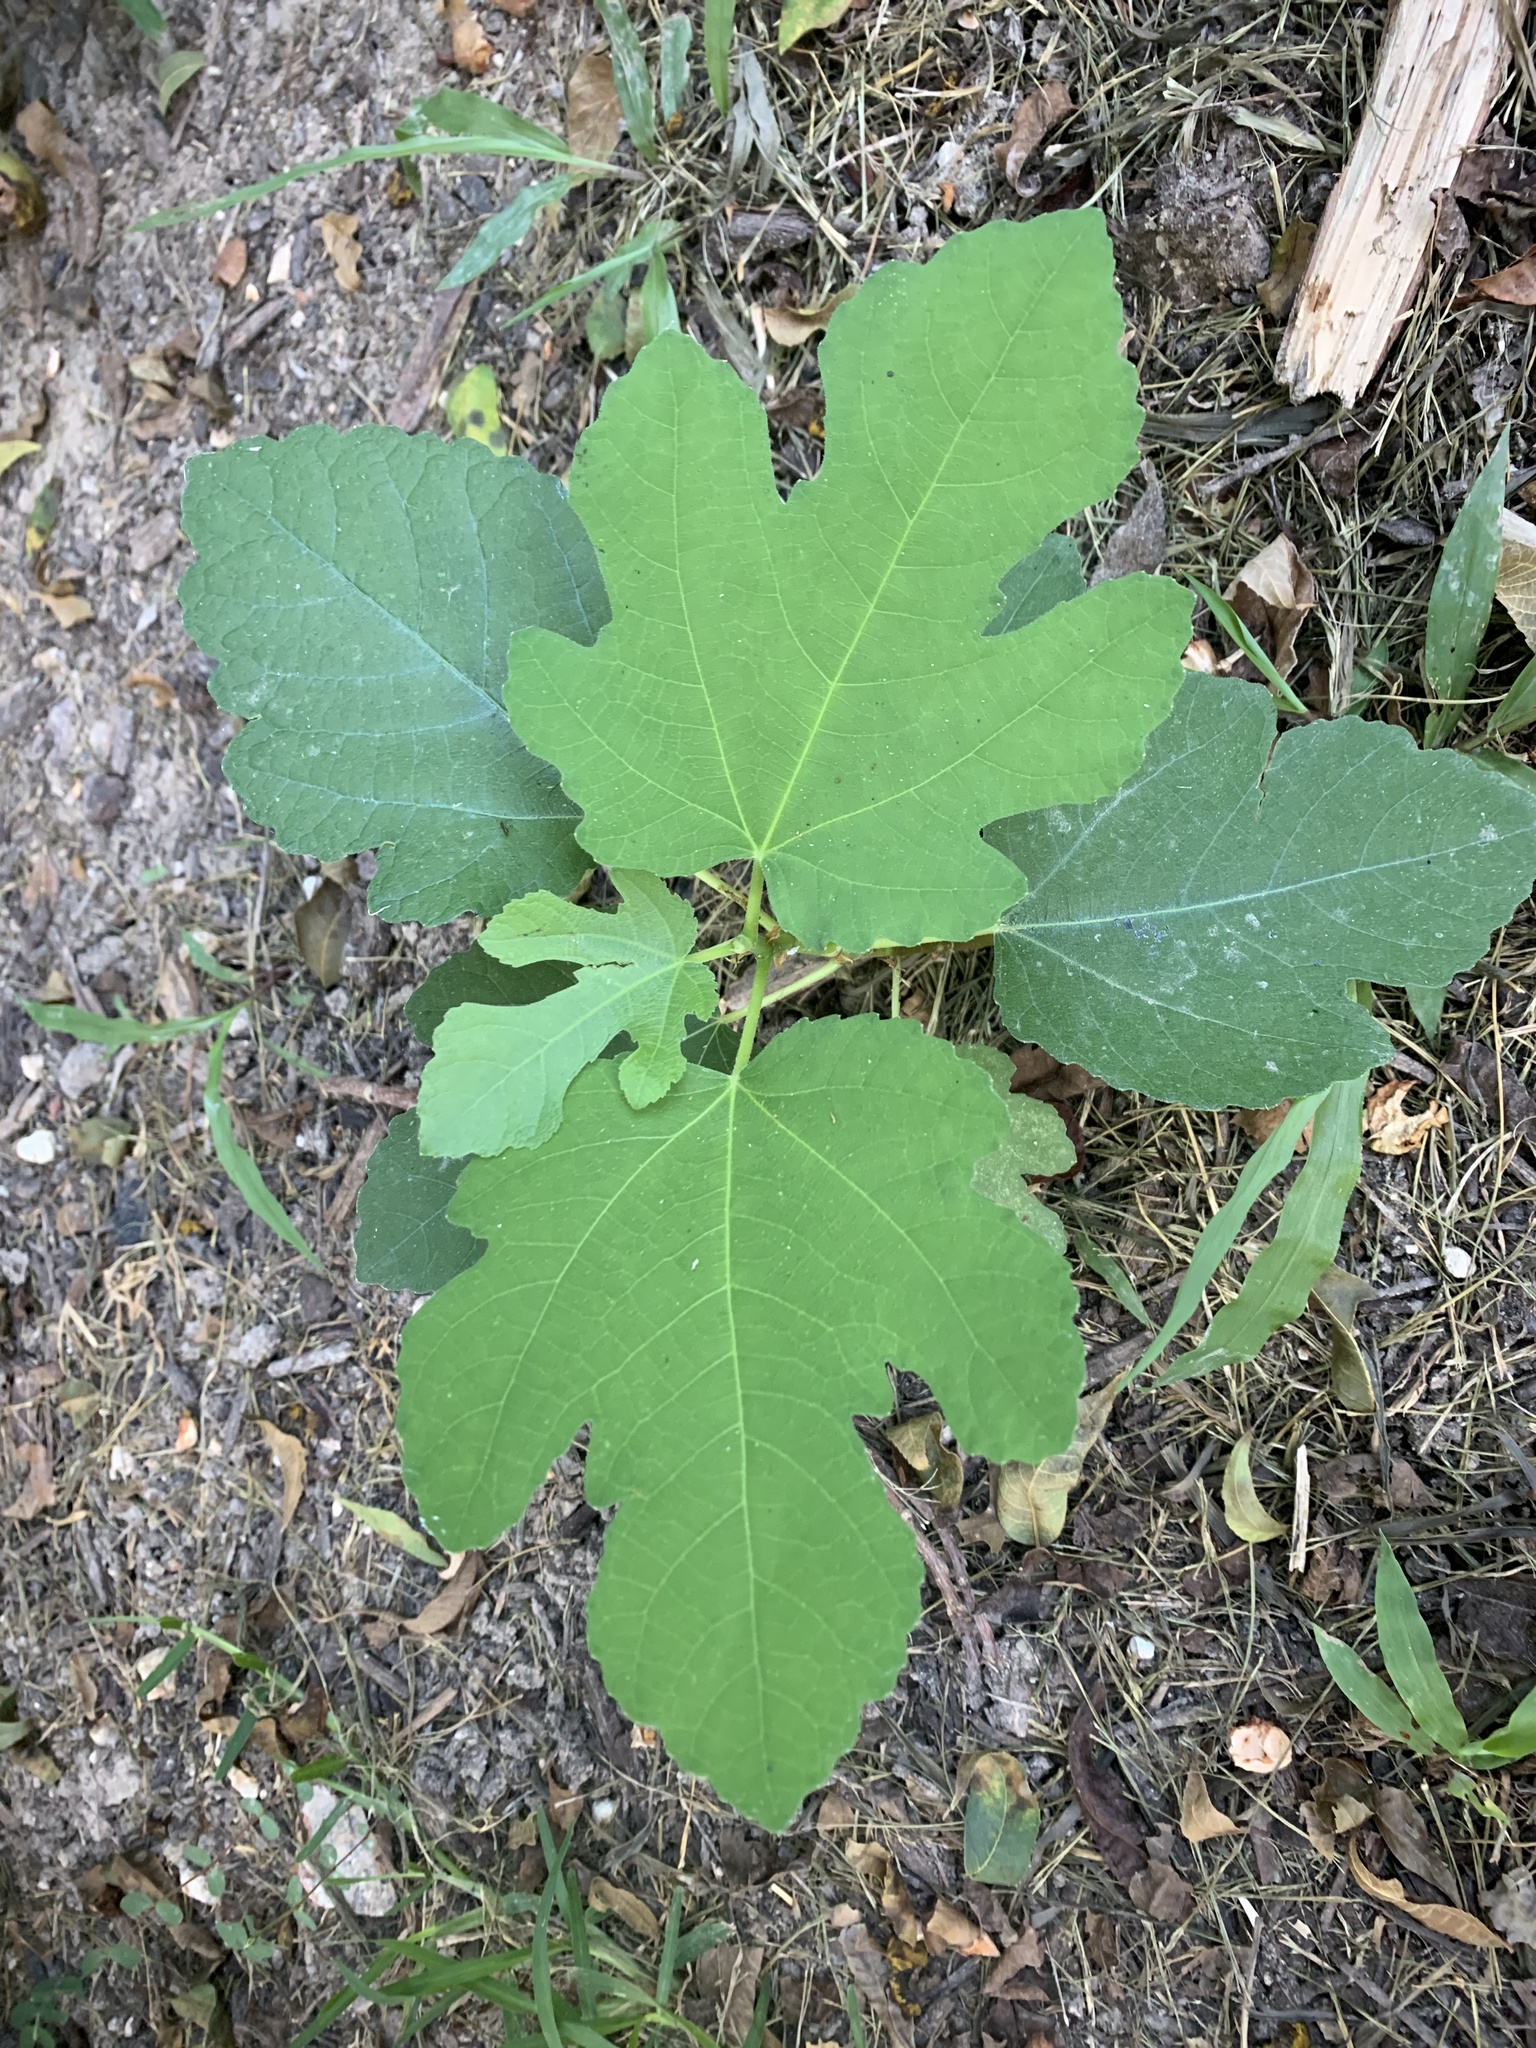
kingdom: Plantae
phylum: Tracheophyta
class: Magnoliopsida
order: Rosales
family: Moraceae
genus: Ficus
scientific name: Ficus carica
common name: Fig
